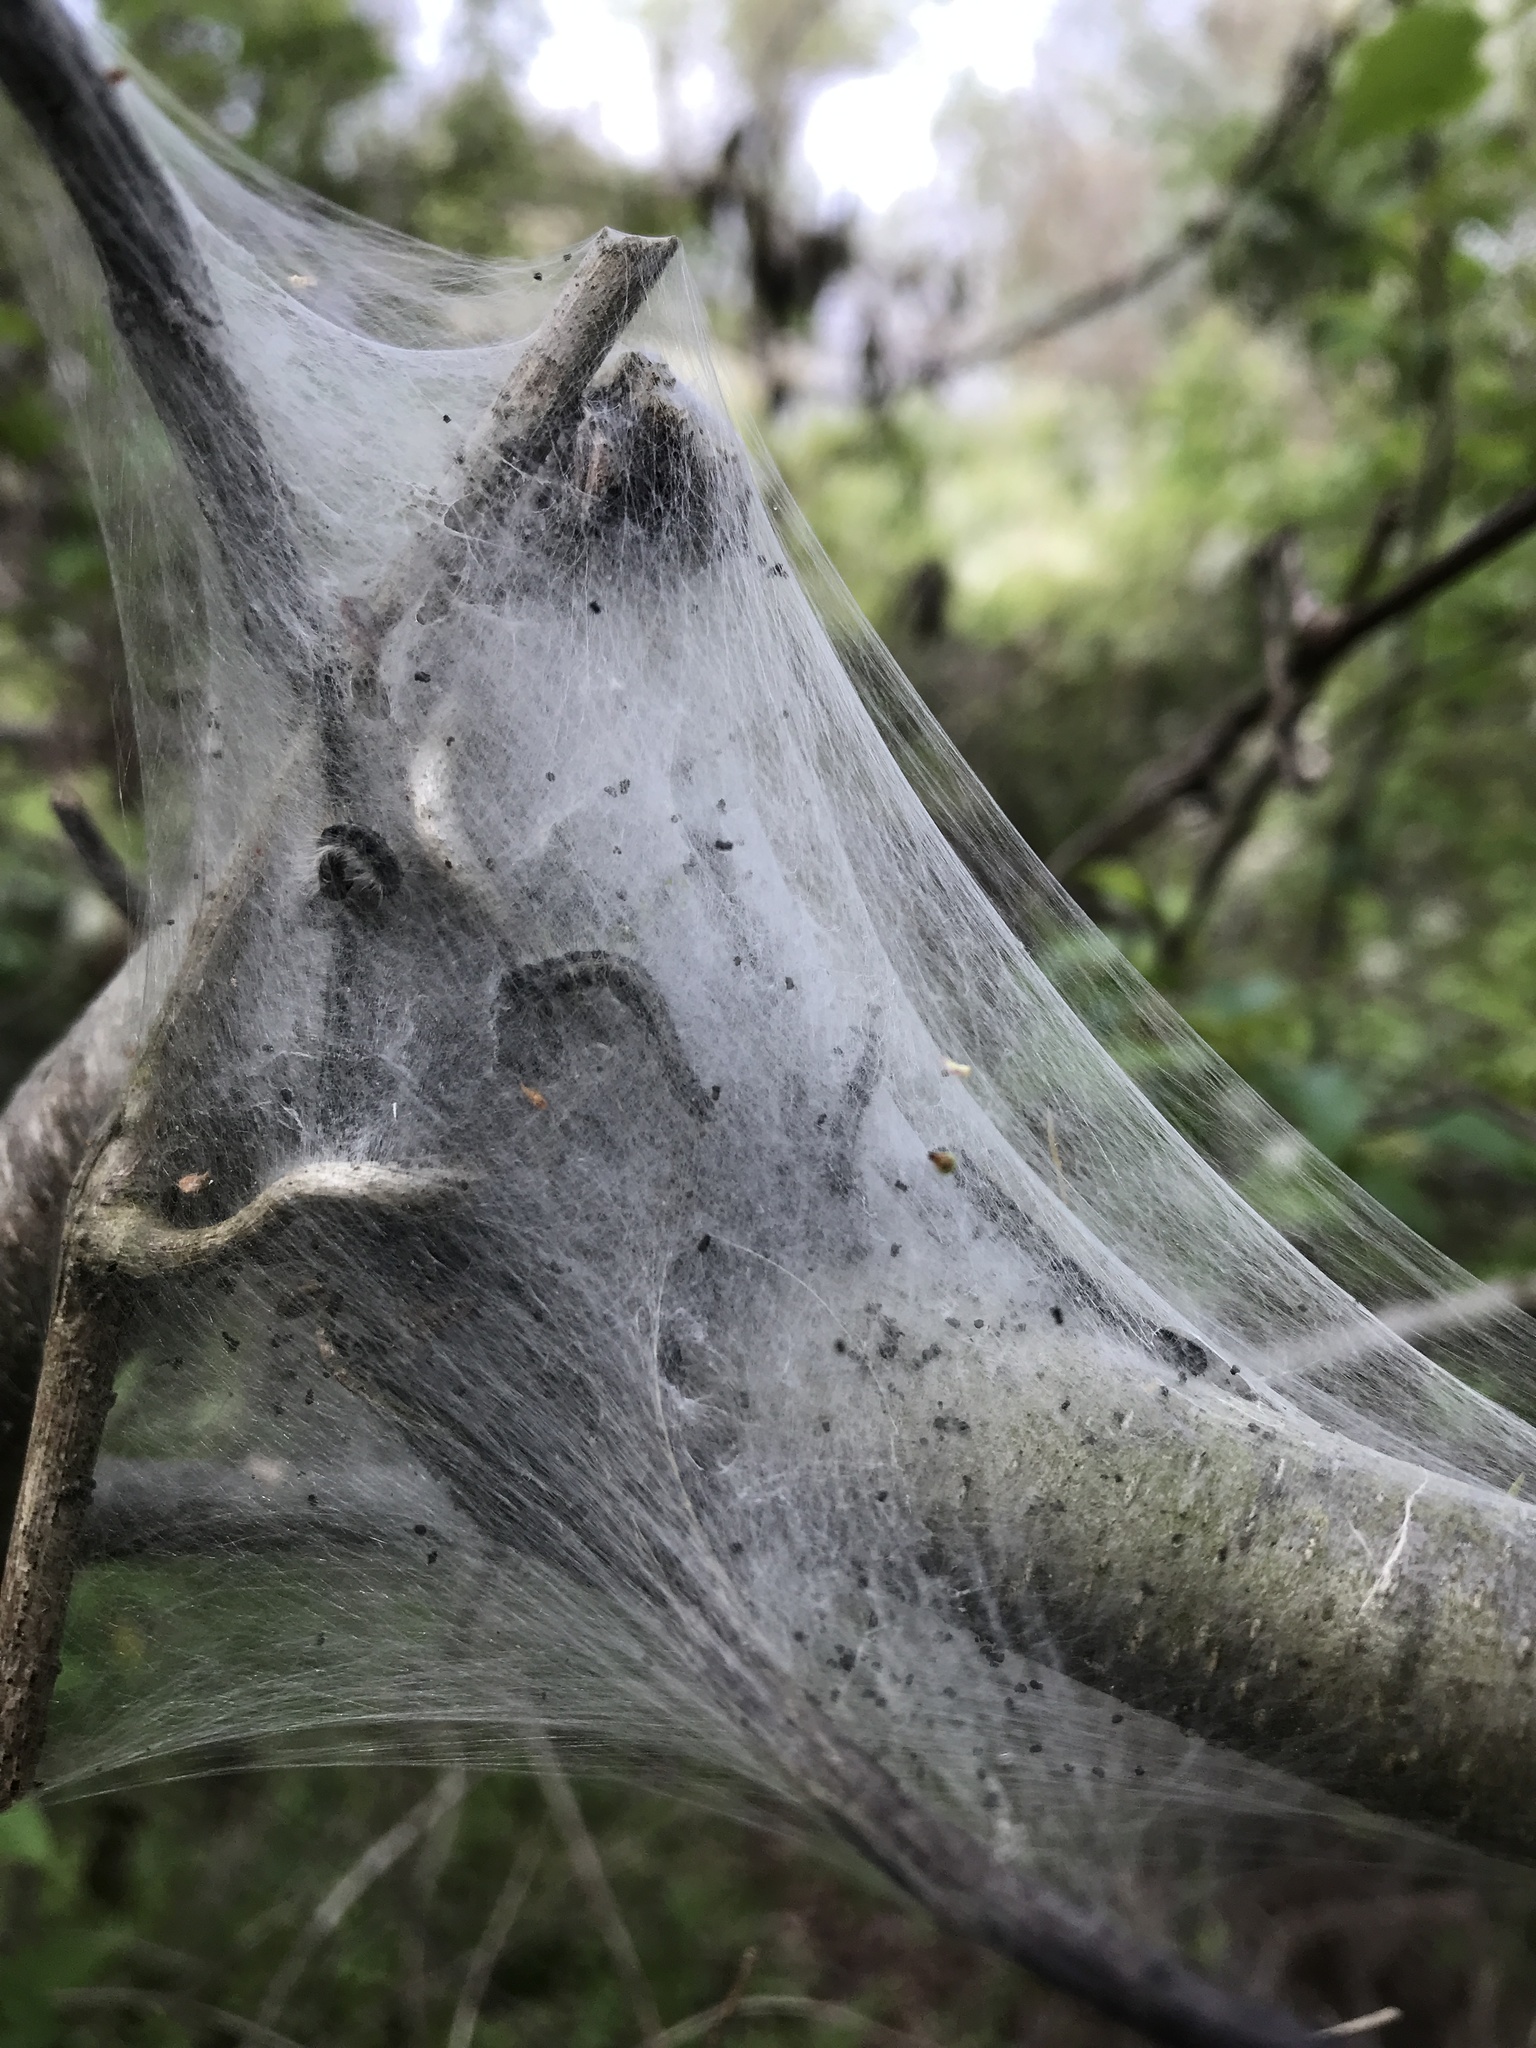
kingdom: Animalia
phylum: Arthropoda
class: Insecta
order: Lepidoptera
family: Lasiocampidae
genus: Malacosoma
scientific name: Malacosoma americana
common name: Eastern tent caterpillar moth
